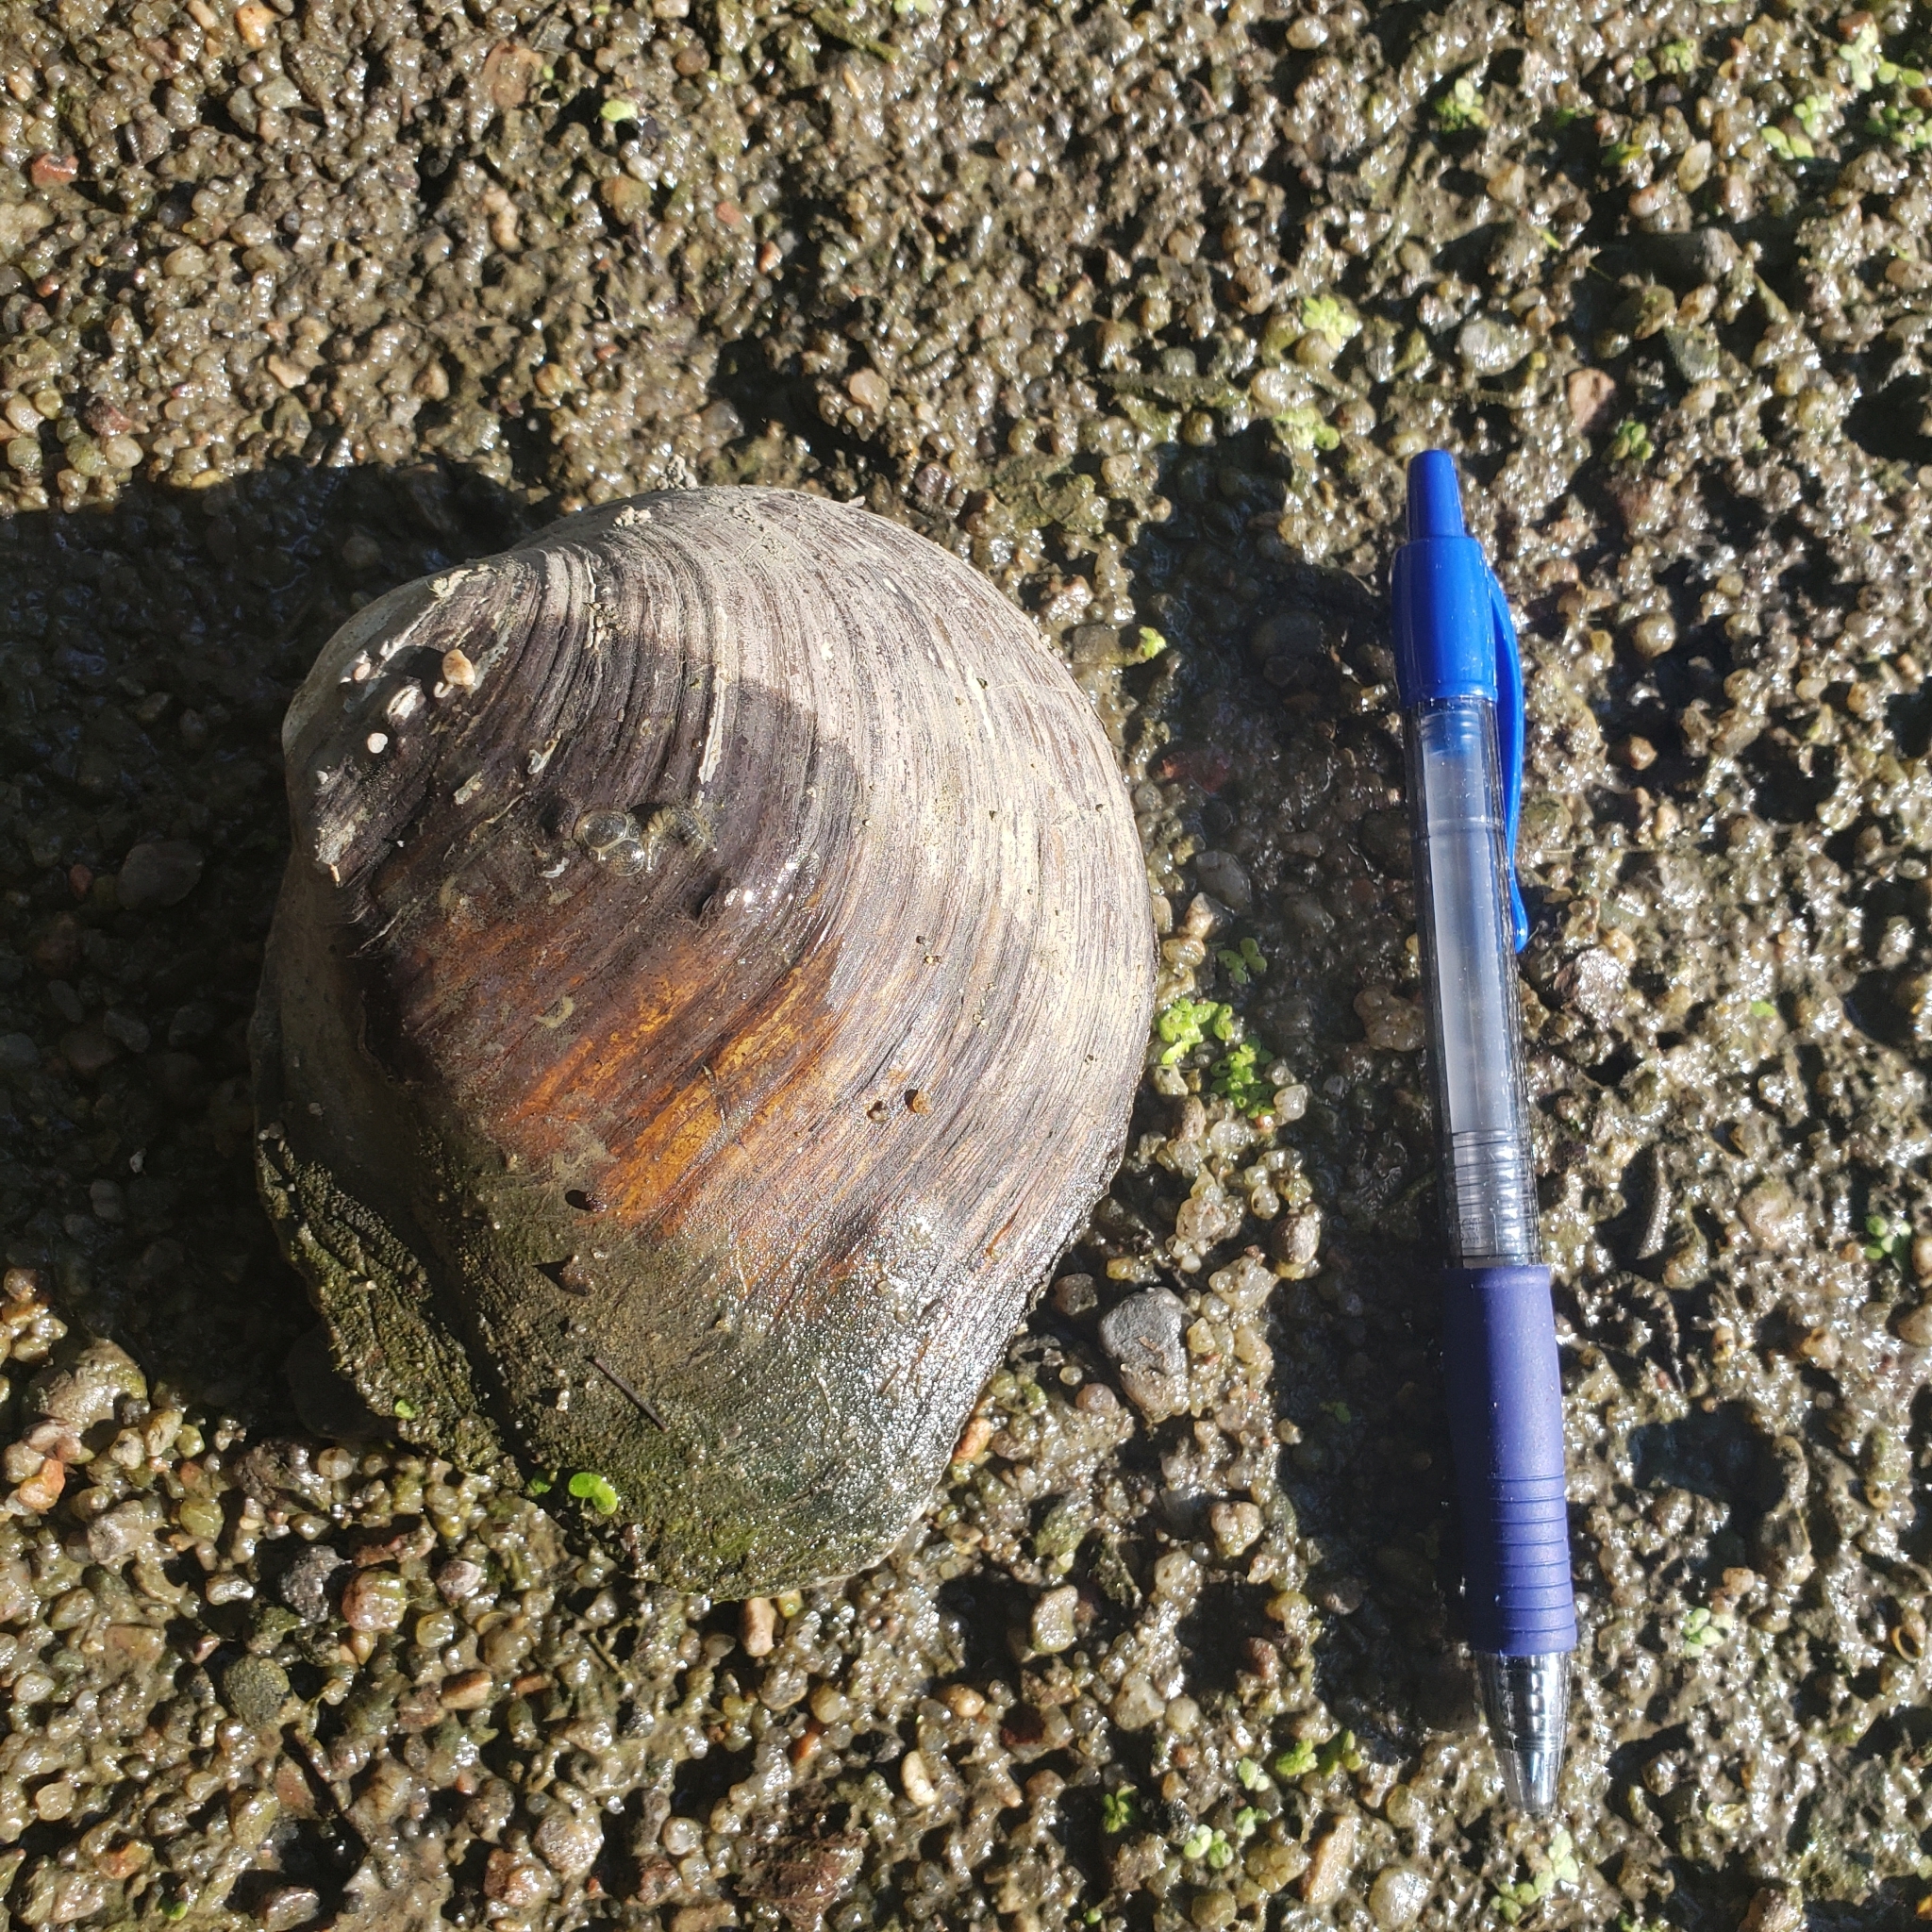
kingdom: Animalia
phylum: Mollusca
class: Bivalvia
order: Unionida
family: Unionidae
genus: Quadrula
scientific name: Quadrula quadrula
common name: Mapleleaf
